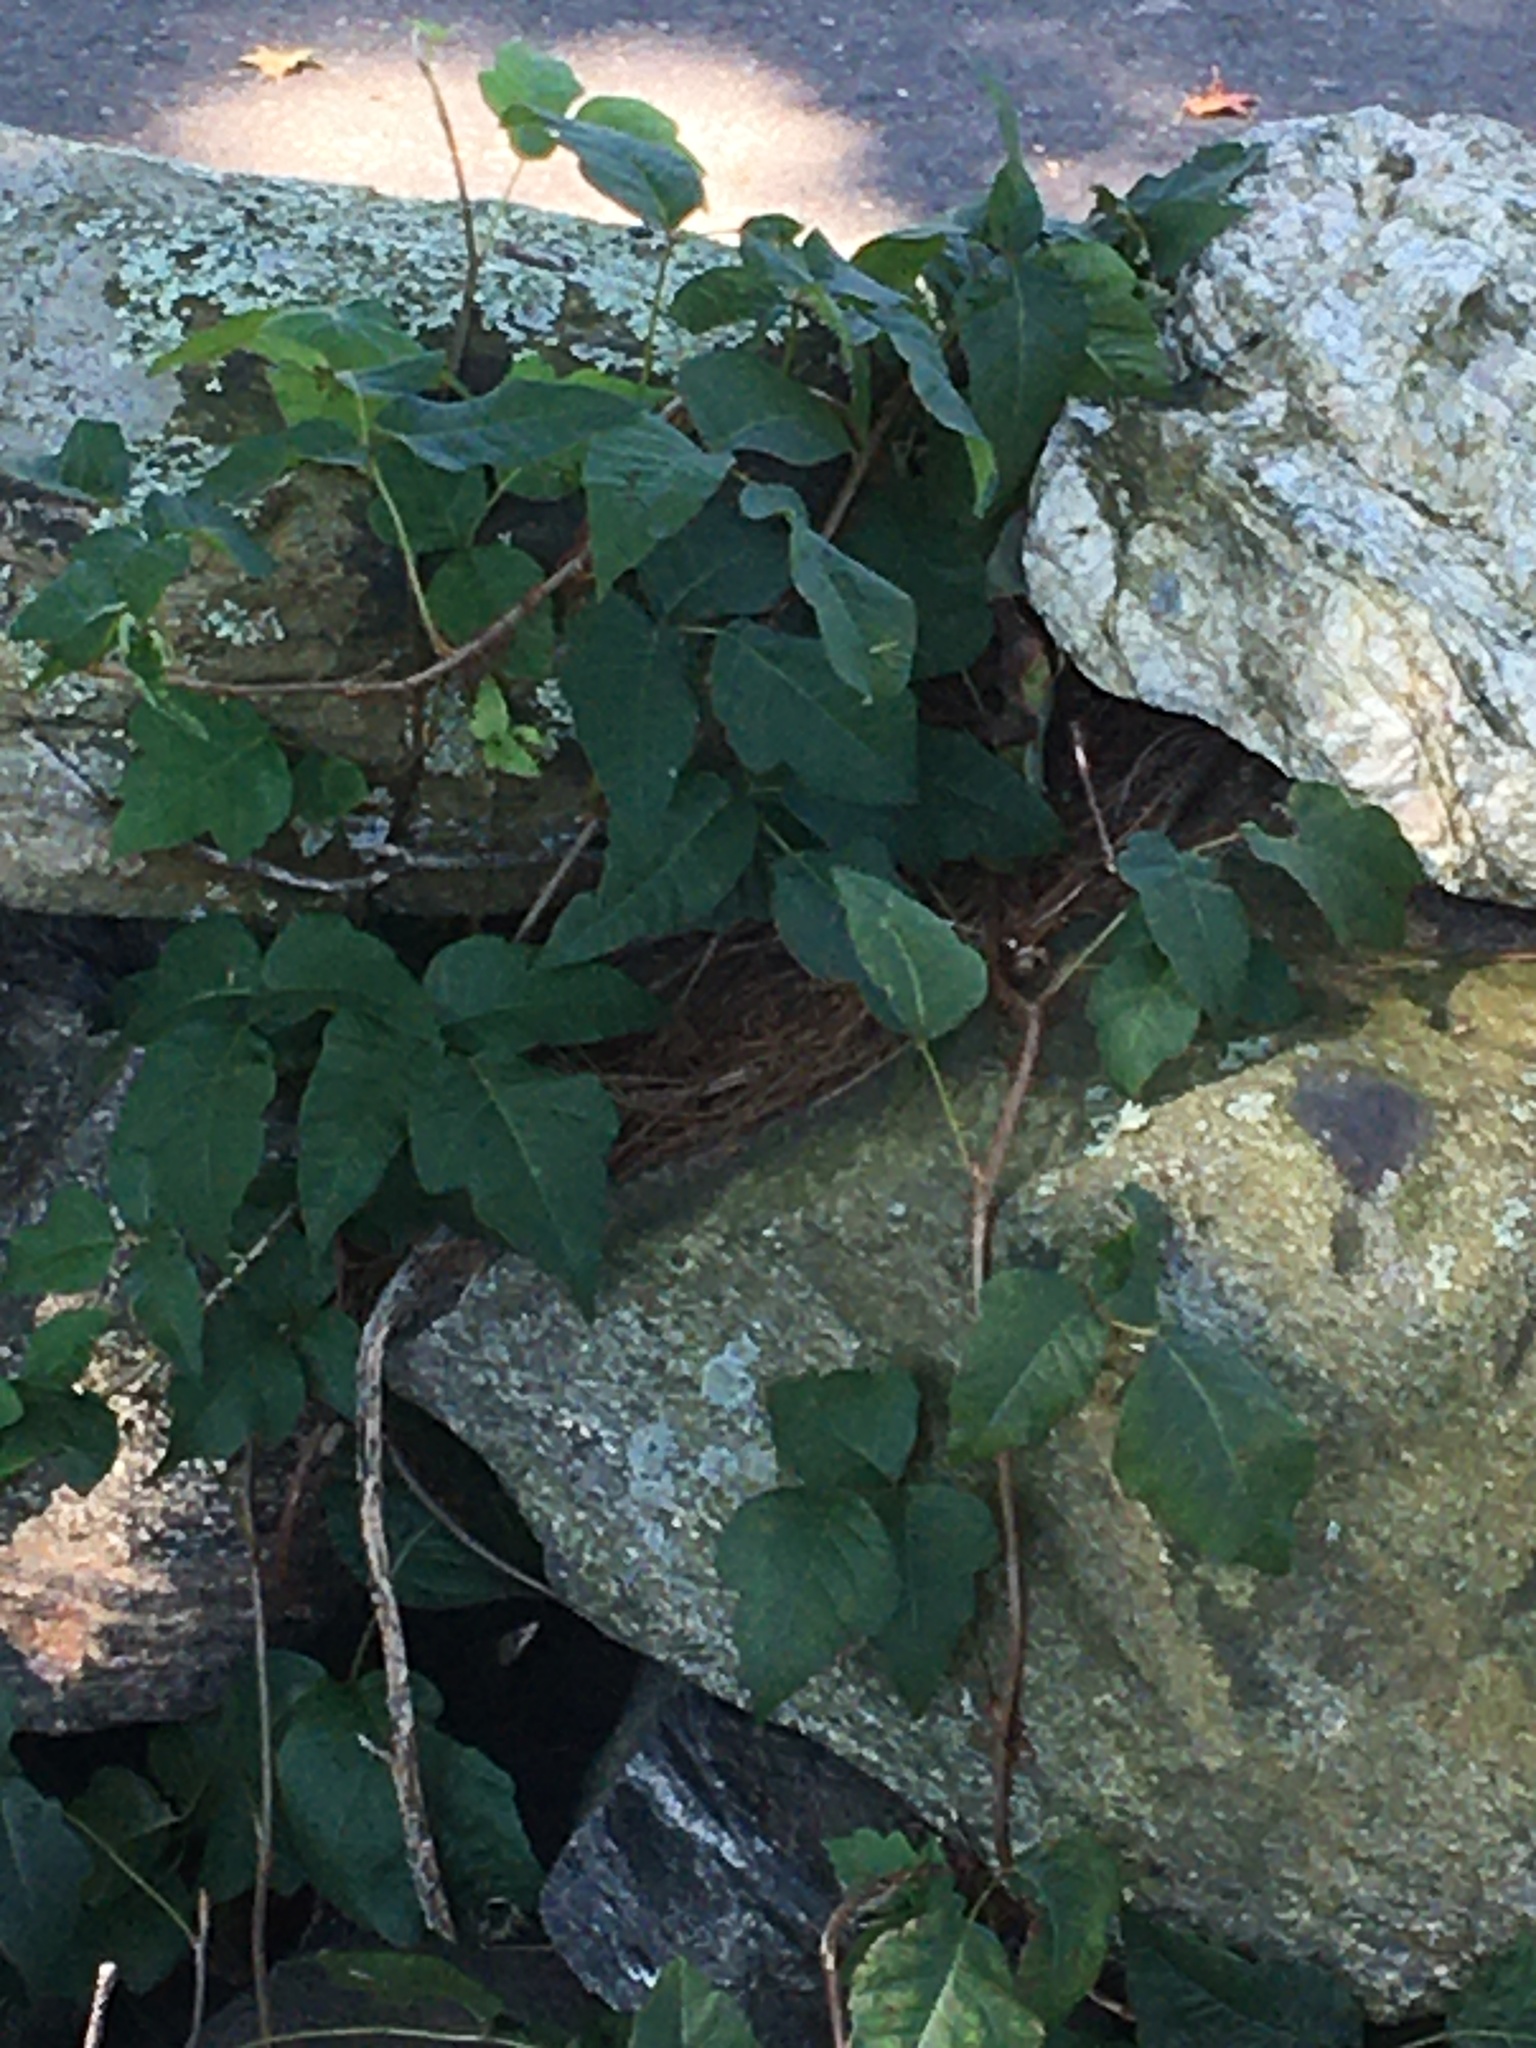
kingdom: Plantae
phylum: Tracheophyta
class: Magnoliopsida
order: Sapindales
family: Anacardiaceae
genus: Toxicodendron
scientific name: Toxicodendron
